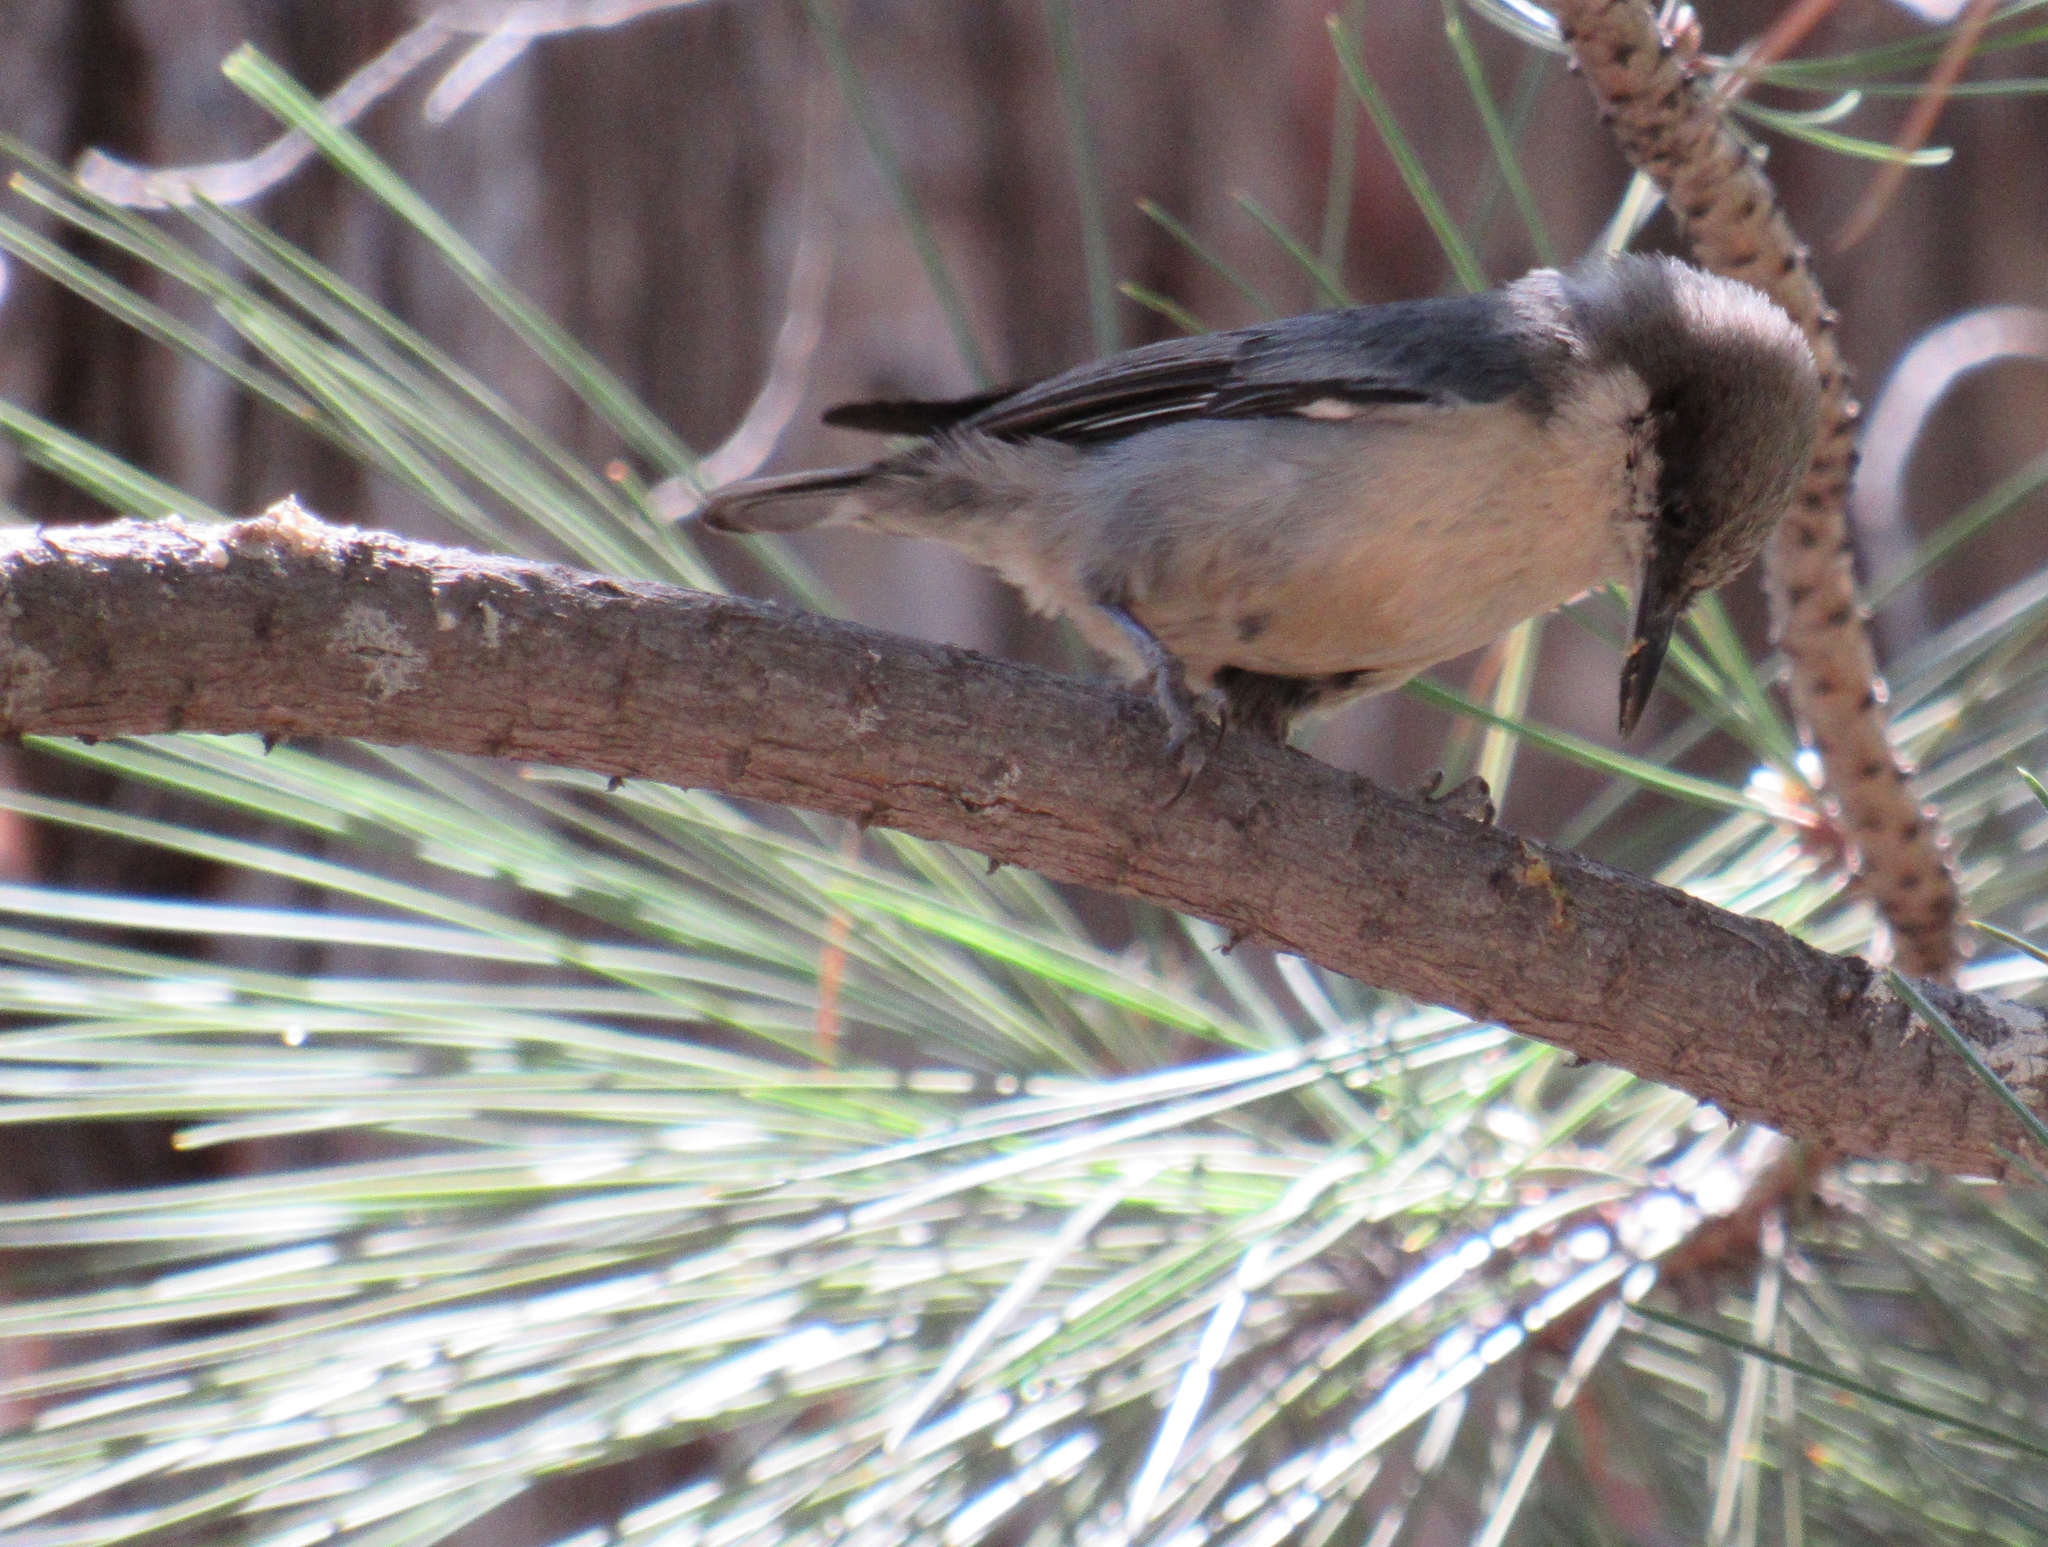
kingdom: Animalia
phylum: Chordata
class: Aves
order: Passeriformes
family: Sittidae
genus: Sitta
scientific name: Sitta pygmaea
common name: Pygmy nuthatch
